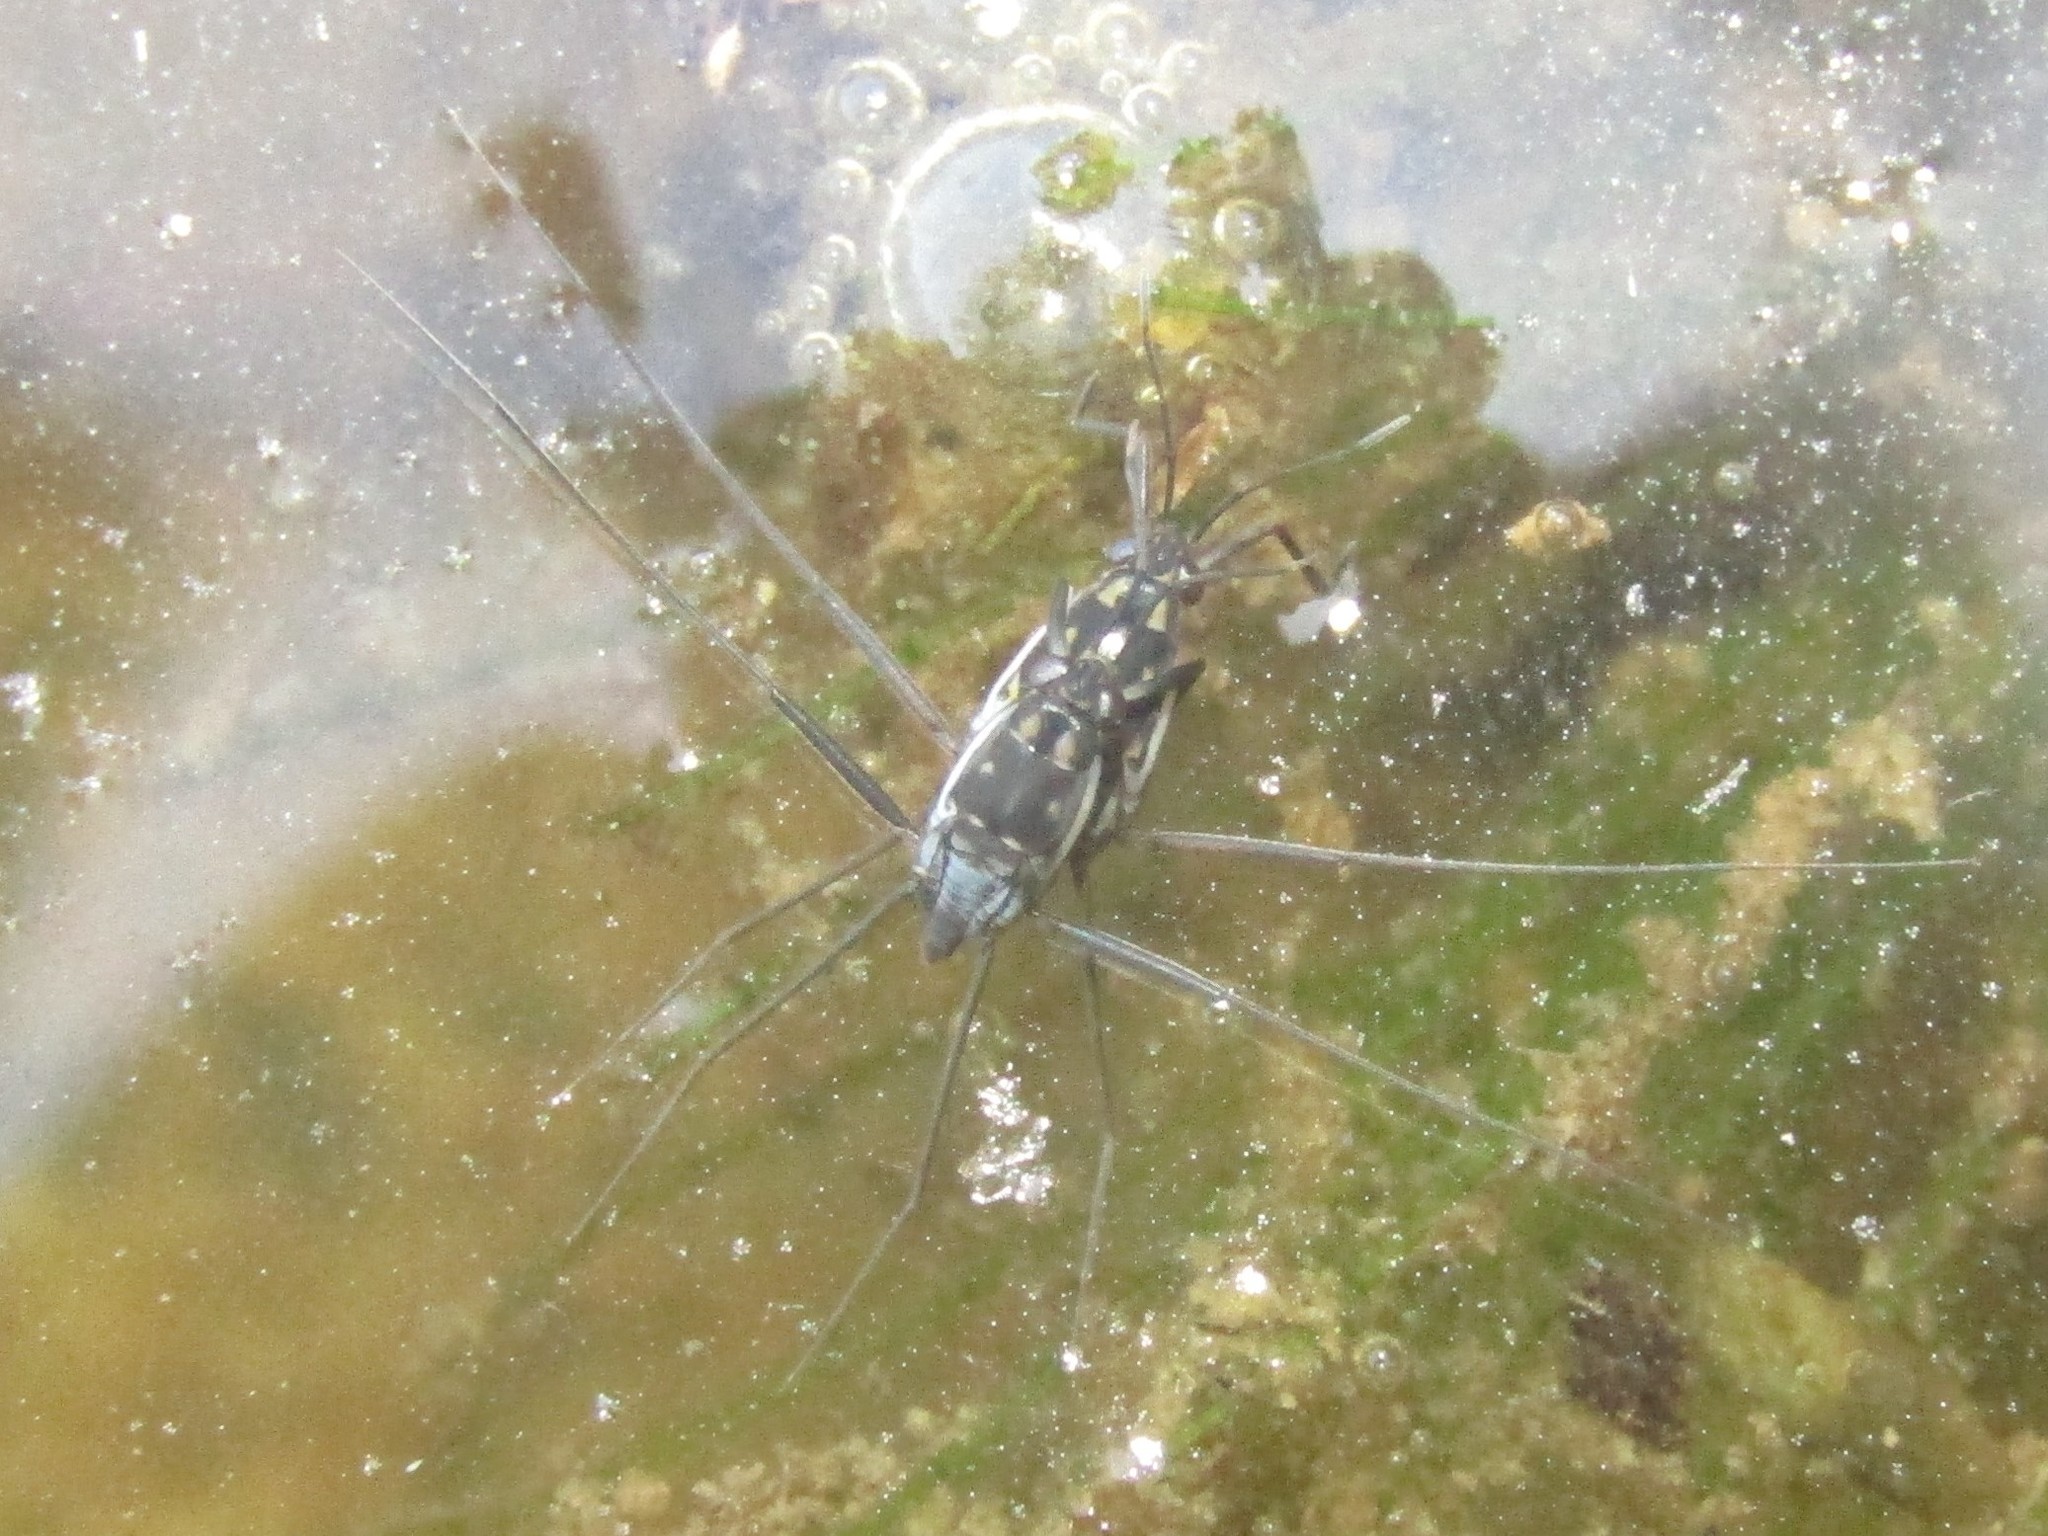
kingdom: Animalia
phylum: Arthropoda
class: Insecta
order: Hemiptera
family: Gerridae
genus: Trepobates
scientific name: Trepobates subnitidus
